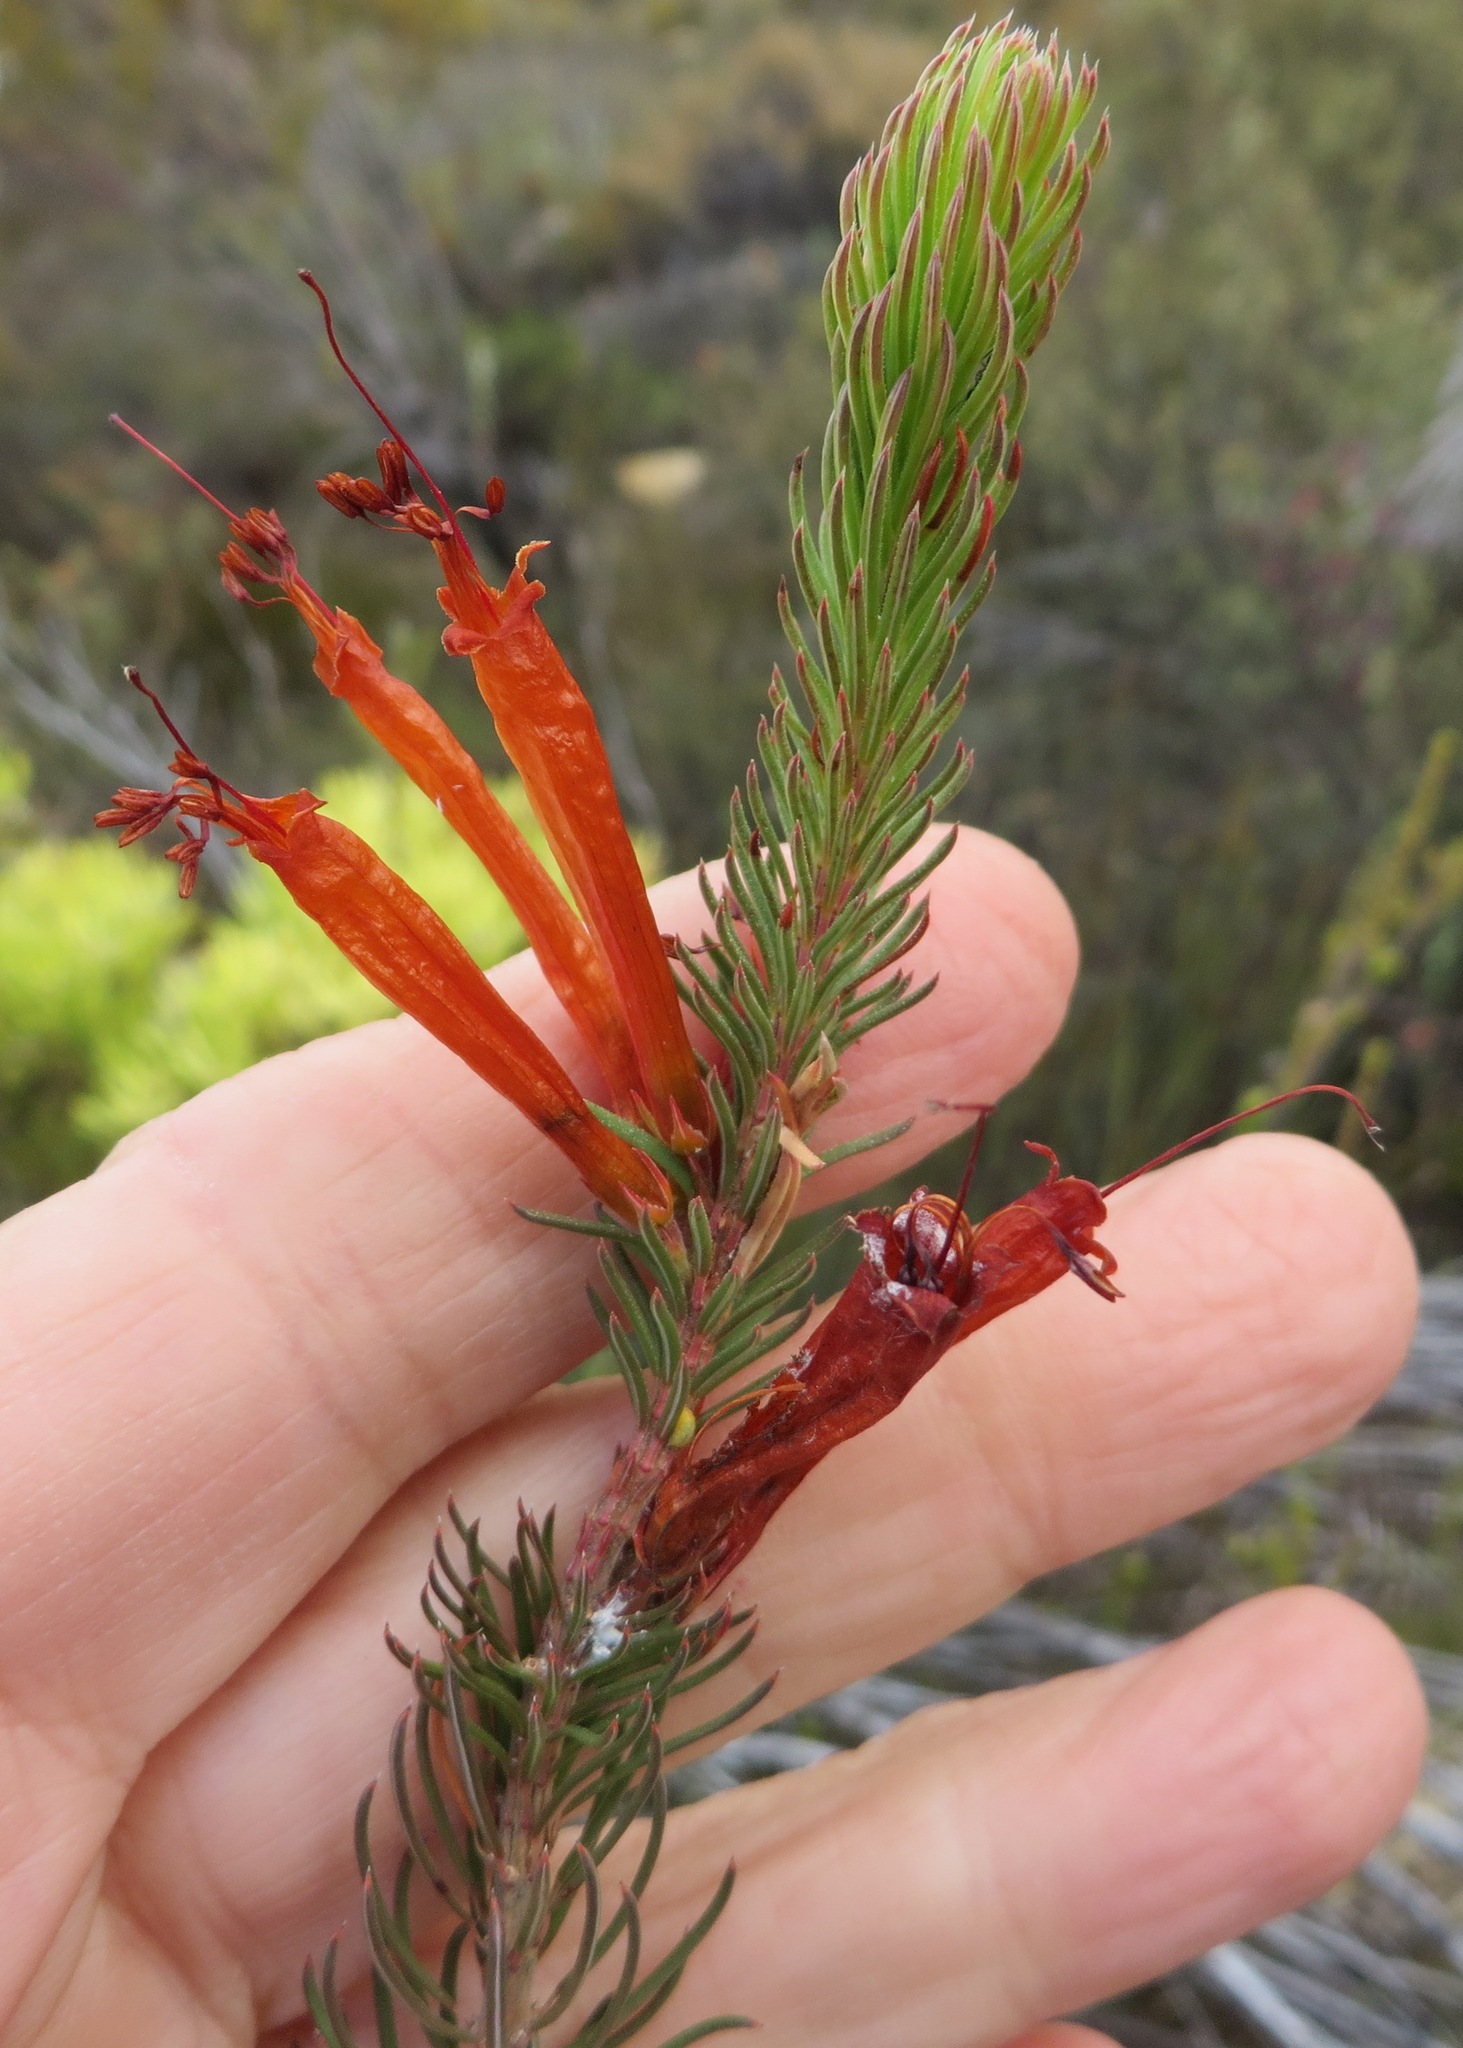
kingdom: Plantae
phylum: Tracheophyta
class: Magnoliopsida
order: Ericales
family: Ericaceae
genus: Erica
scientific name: Erica grandiflora
